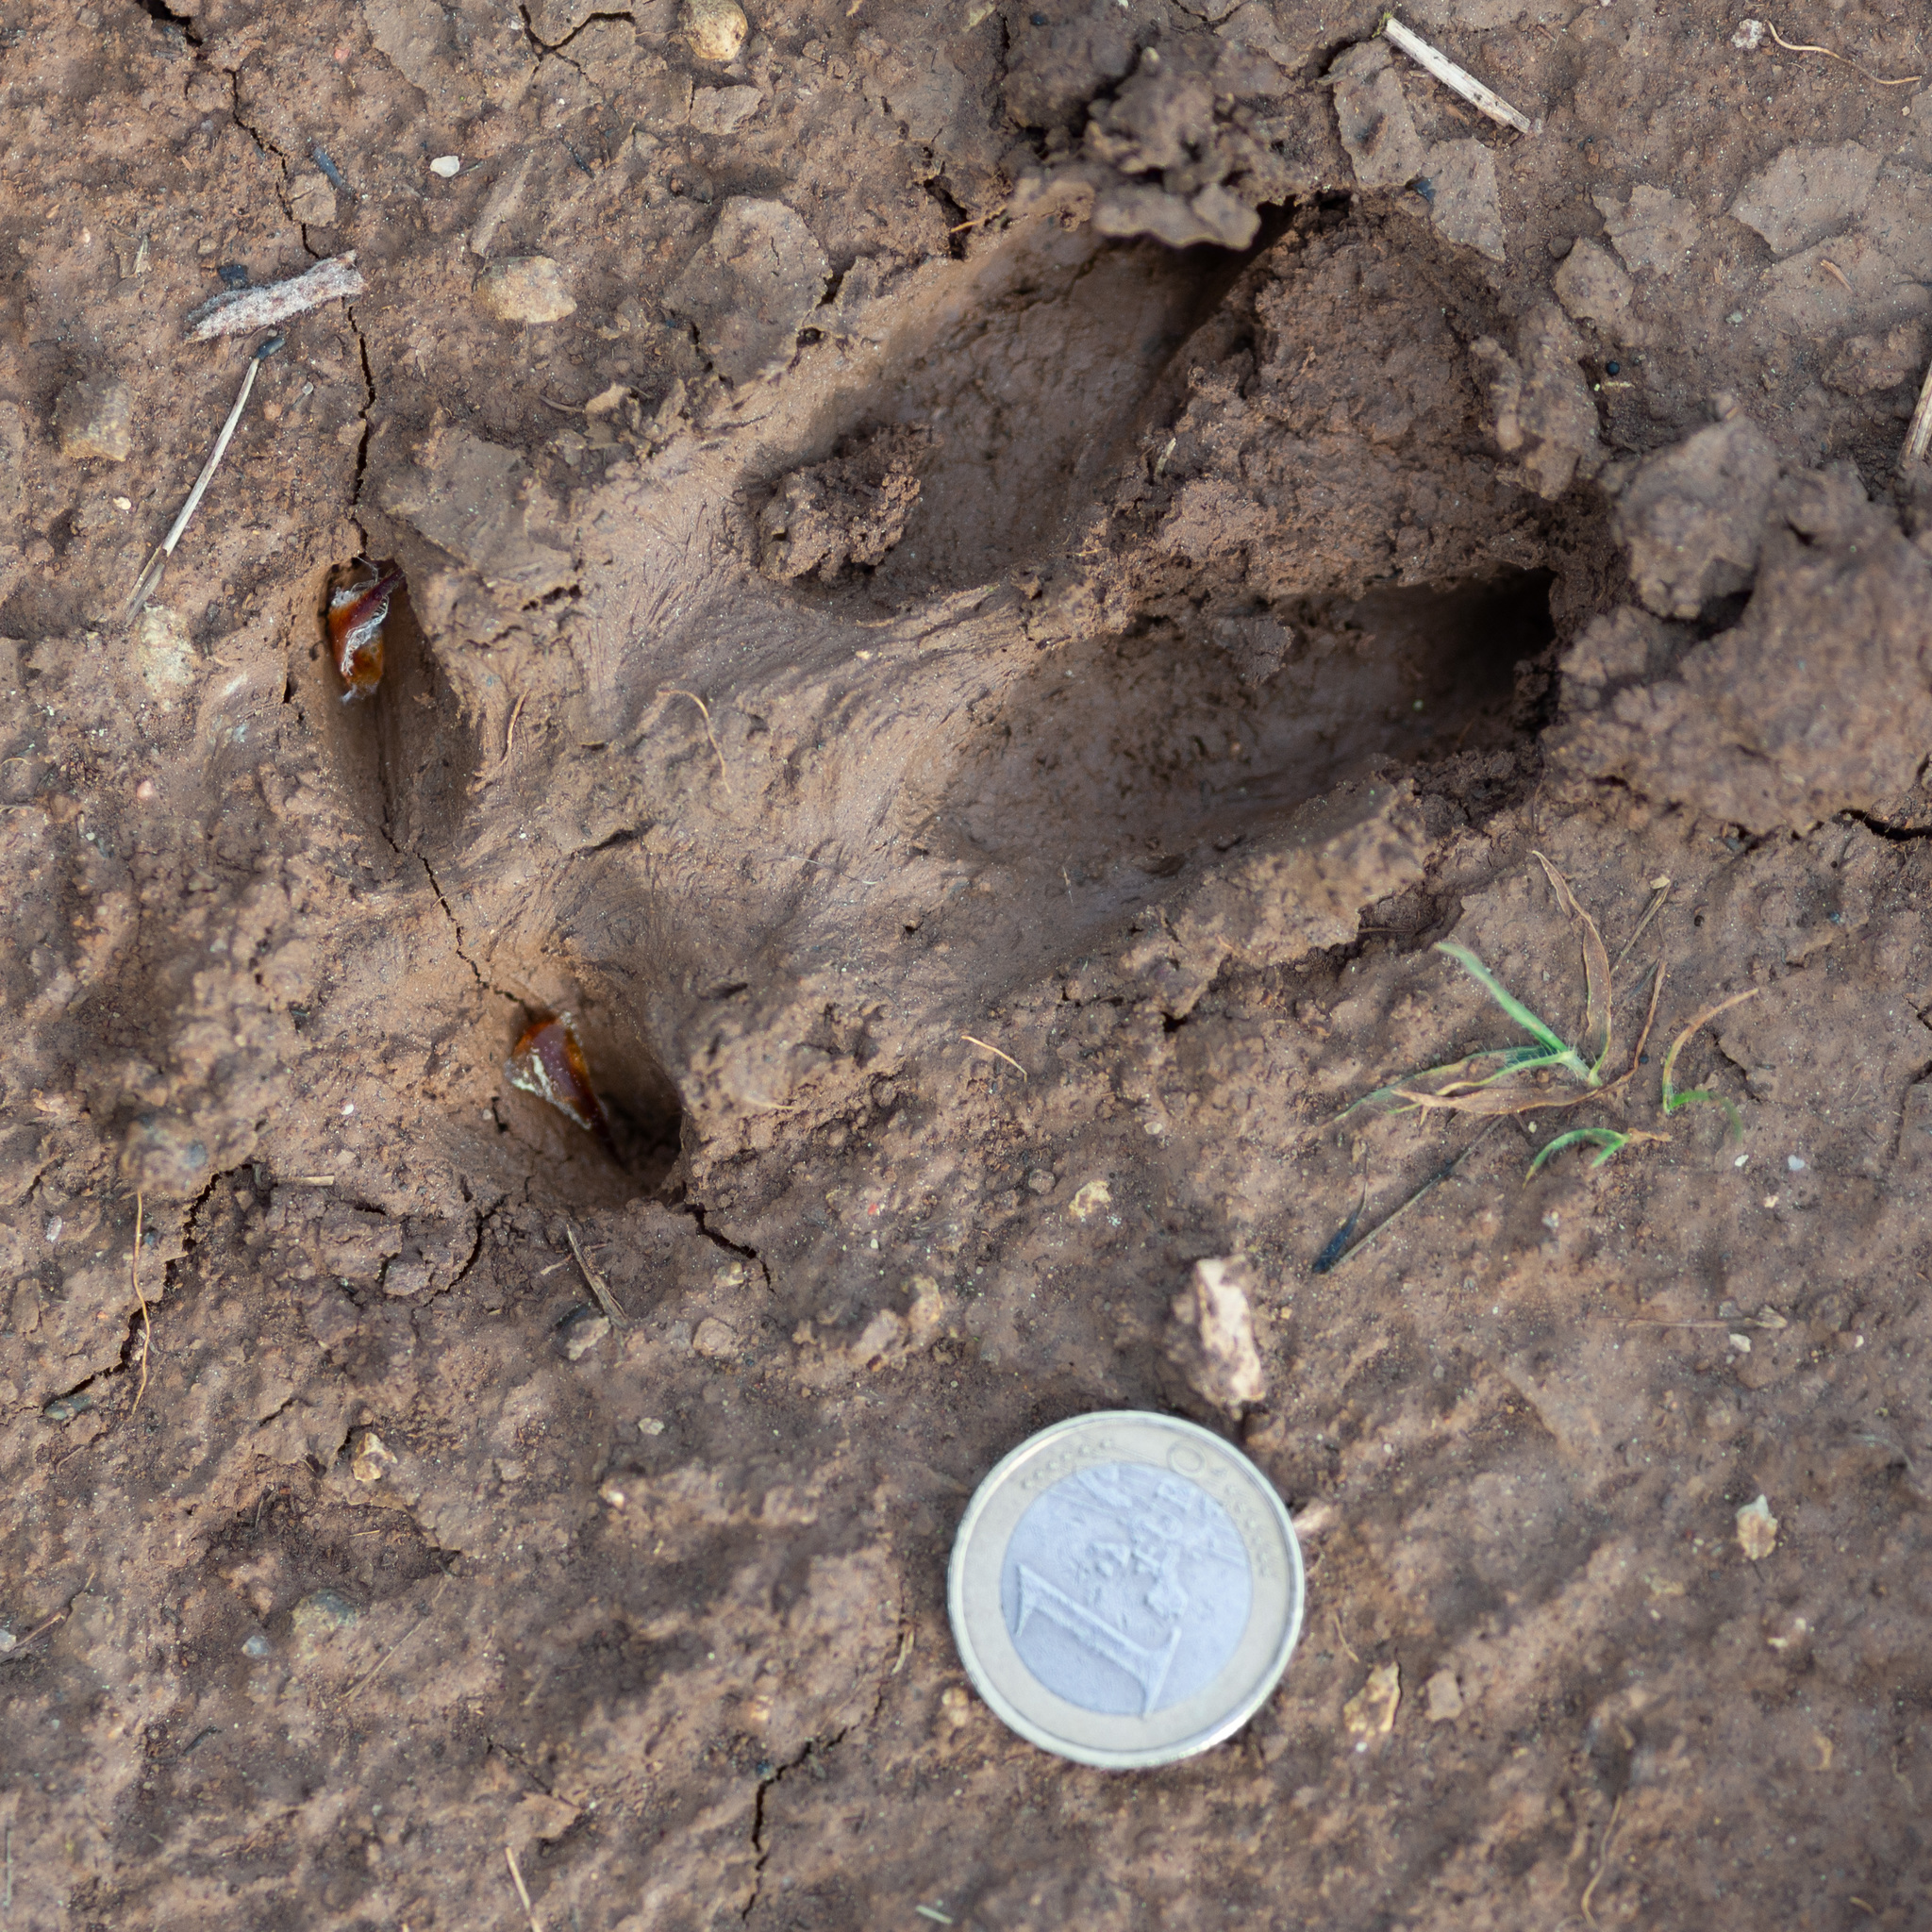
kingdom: Animalia
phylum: Chordata
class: Mammalia
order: Artiodactyla
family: Cervidae
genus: Capreolus
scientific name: Capreolus capreolus
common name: Western roe deer
